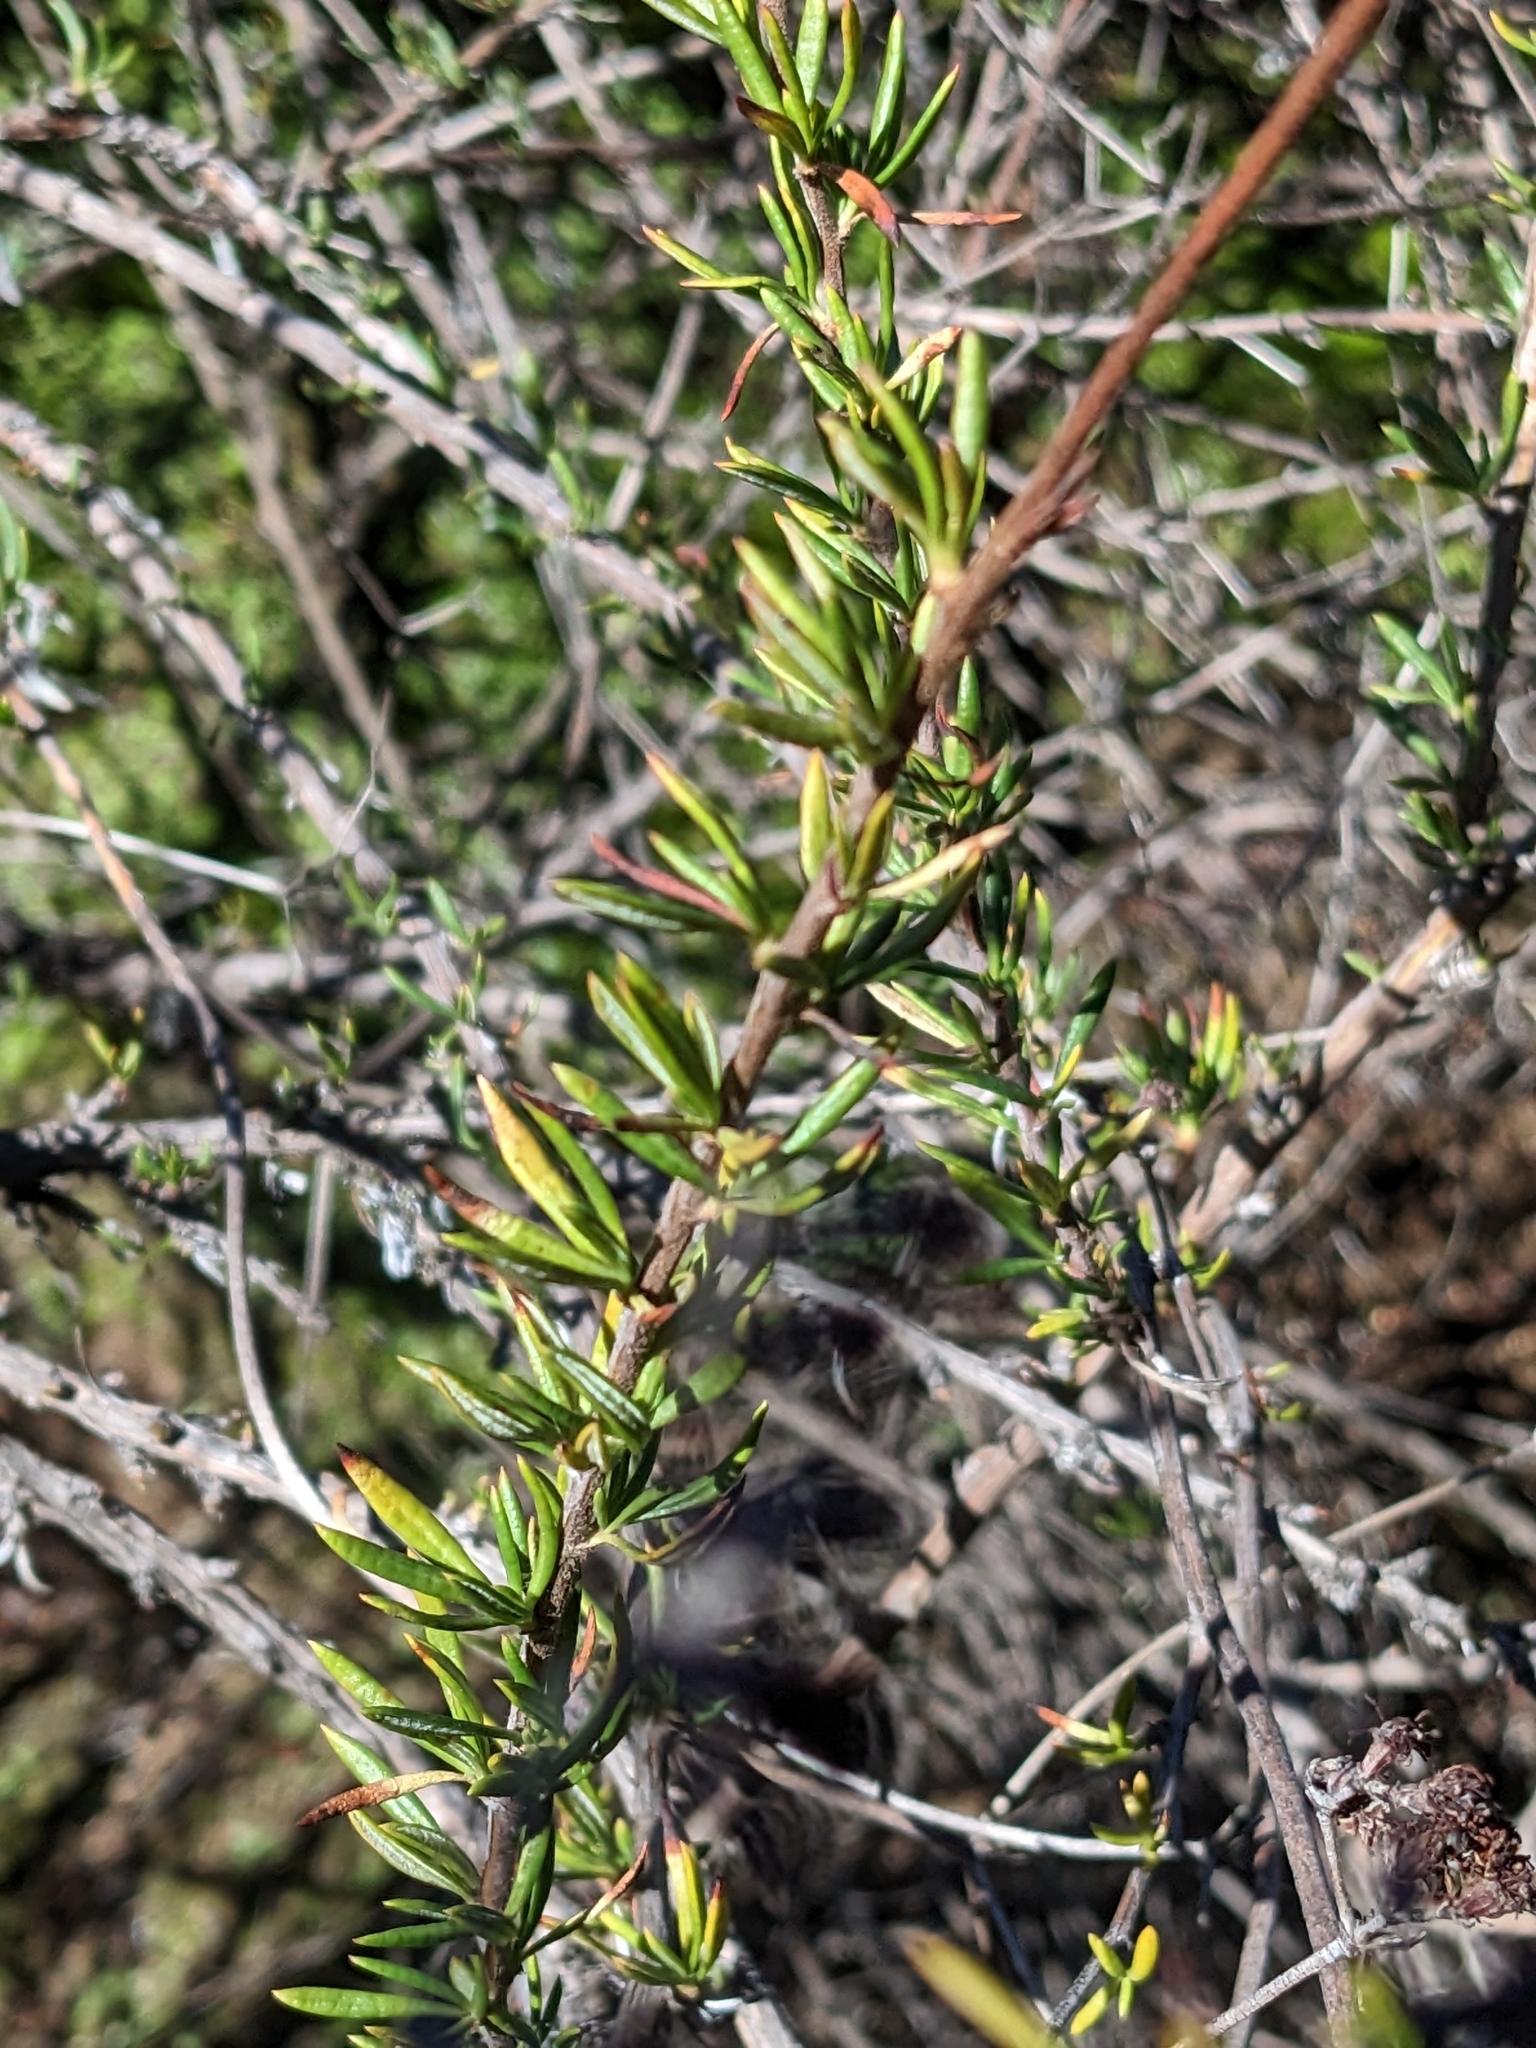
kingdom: Plantae
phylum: Tracheophyta
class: Magnoliopsida
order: Caryophyllales
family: Polygonaceae
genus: Eriogonum
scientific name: Eriogonum fasciculatum
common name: California wild buckwheat
